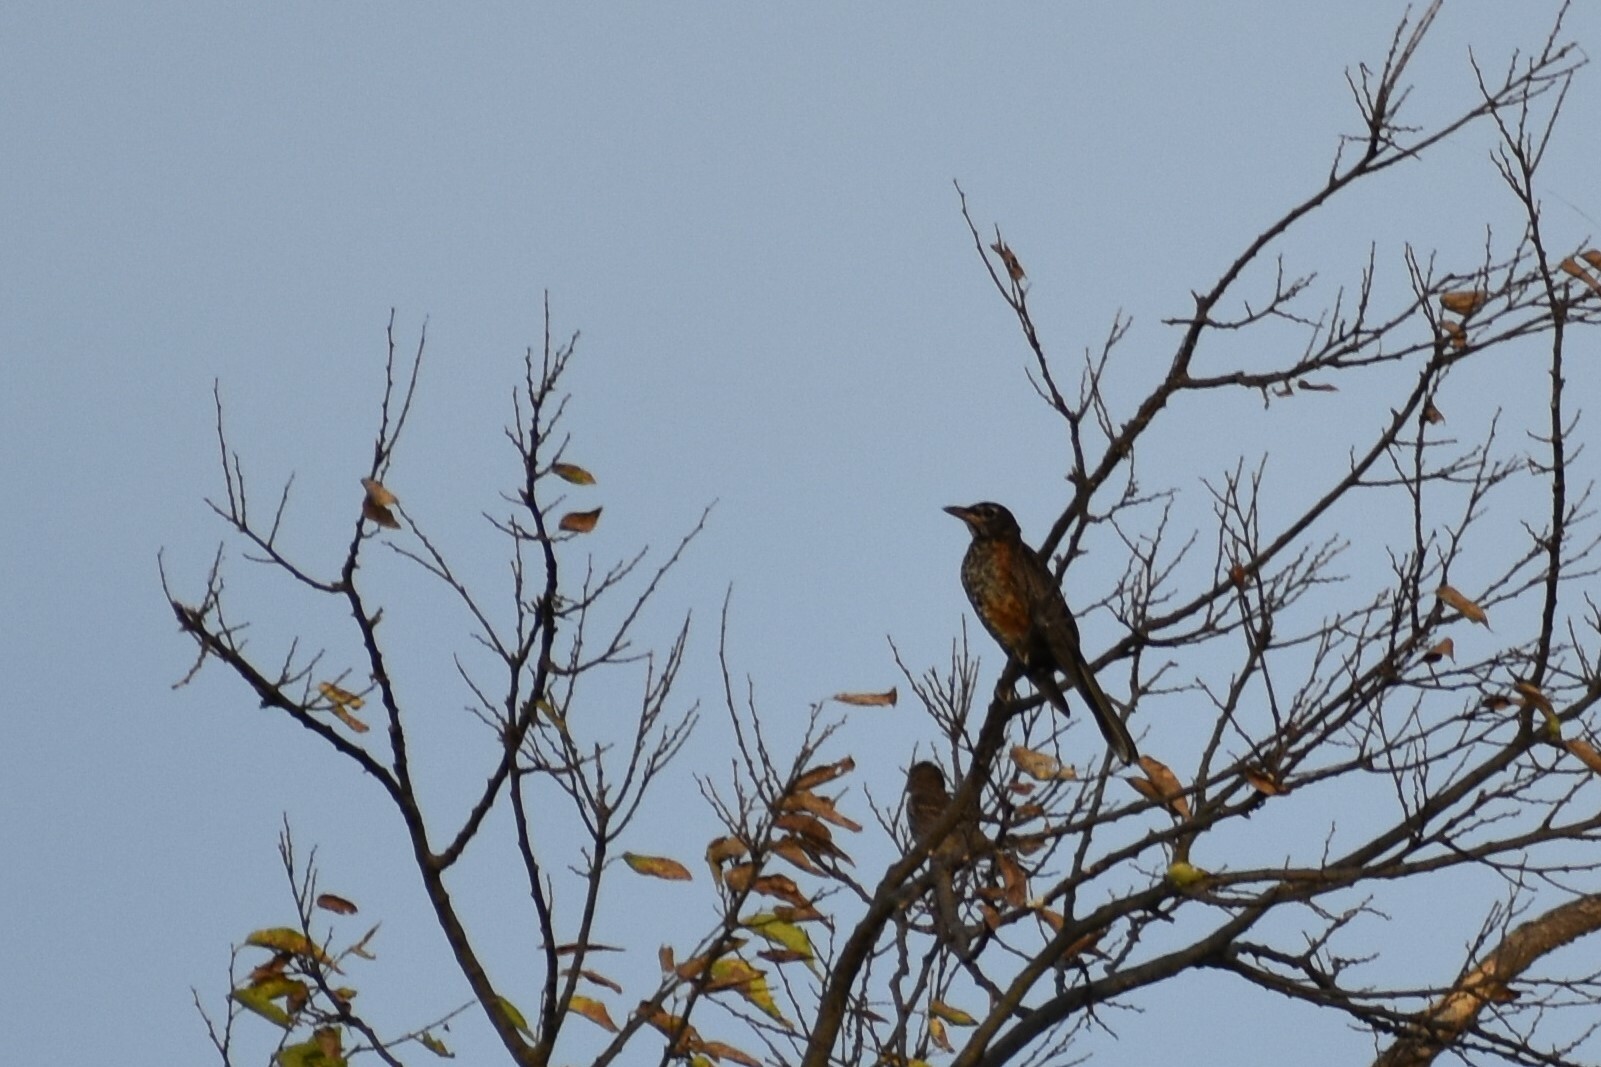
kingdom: Animalia
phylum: Chordata
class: Aves
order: Passeriformes
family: Turdidae
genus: Turdus
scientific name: Turdus migratorius
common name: American robin
